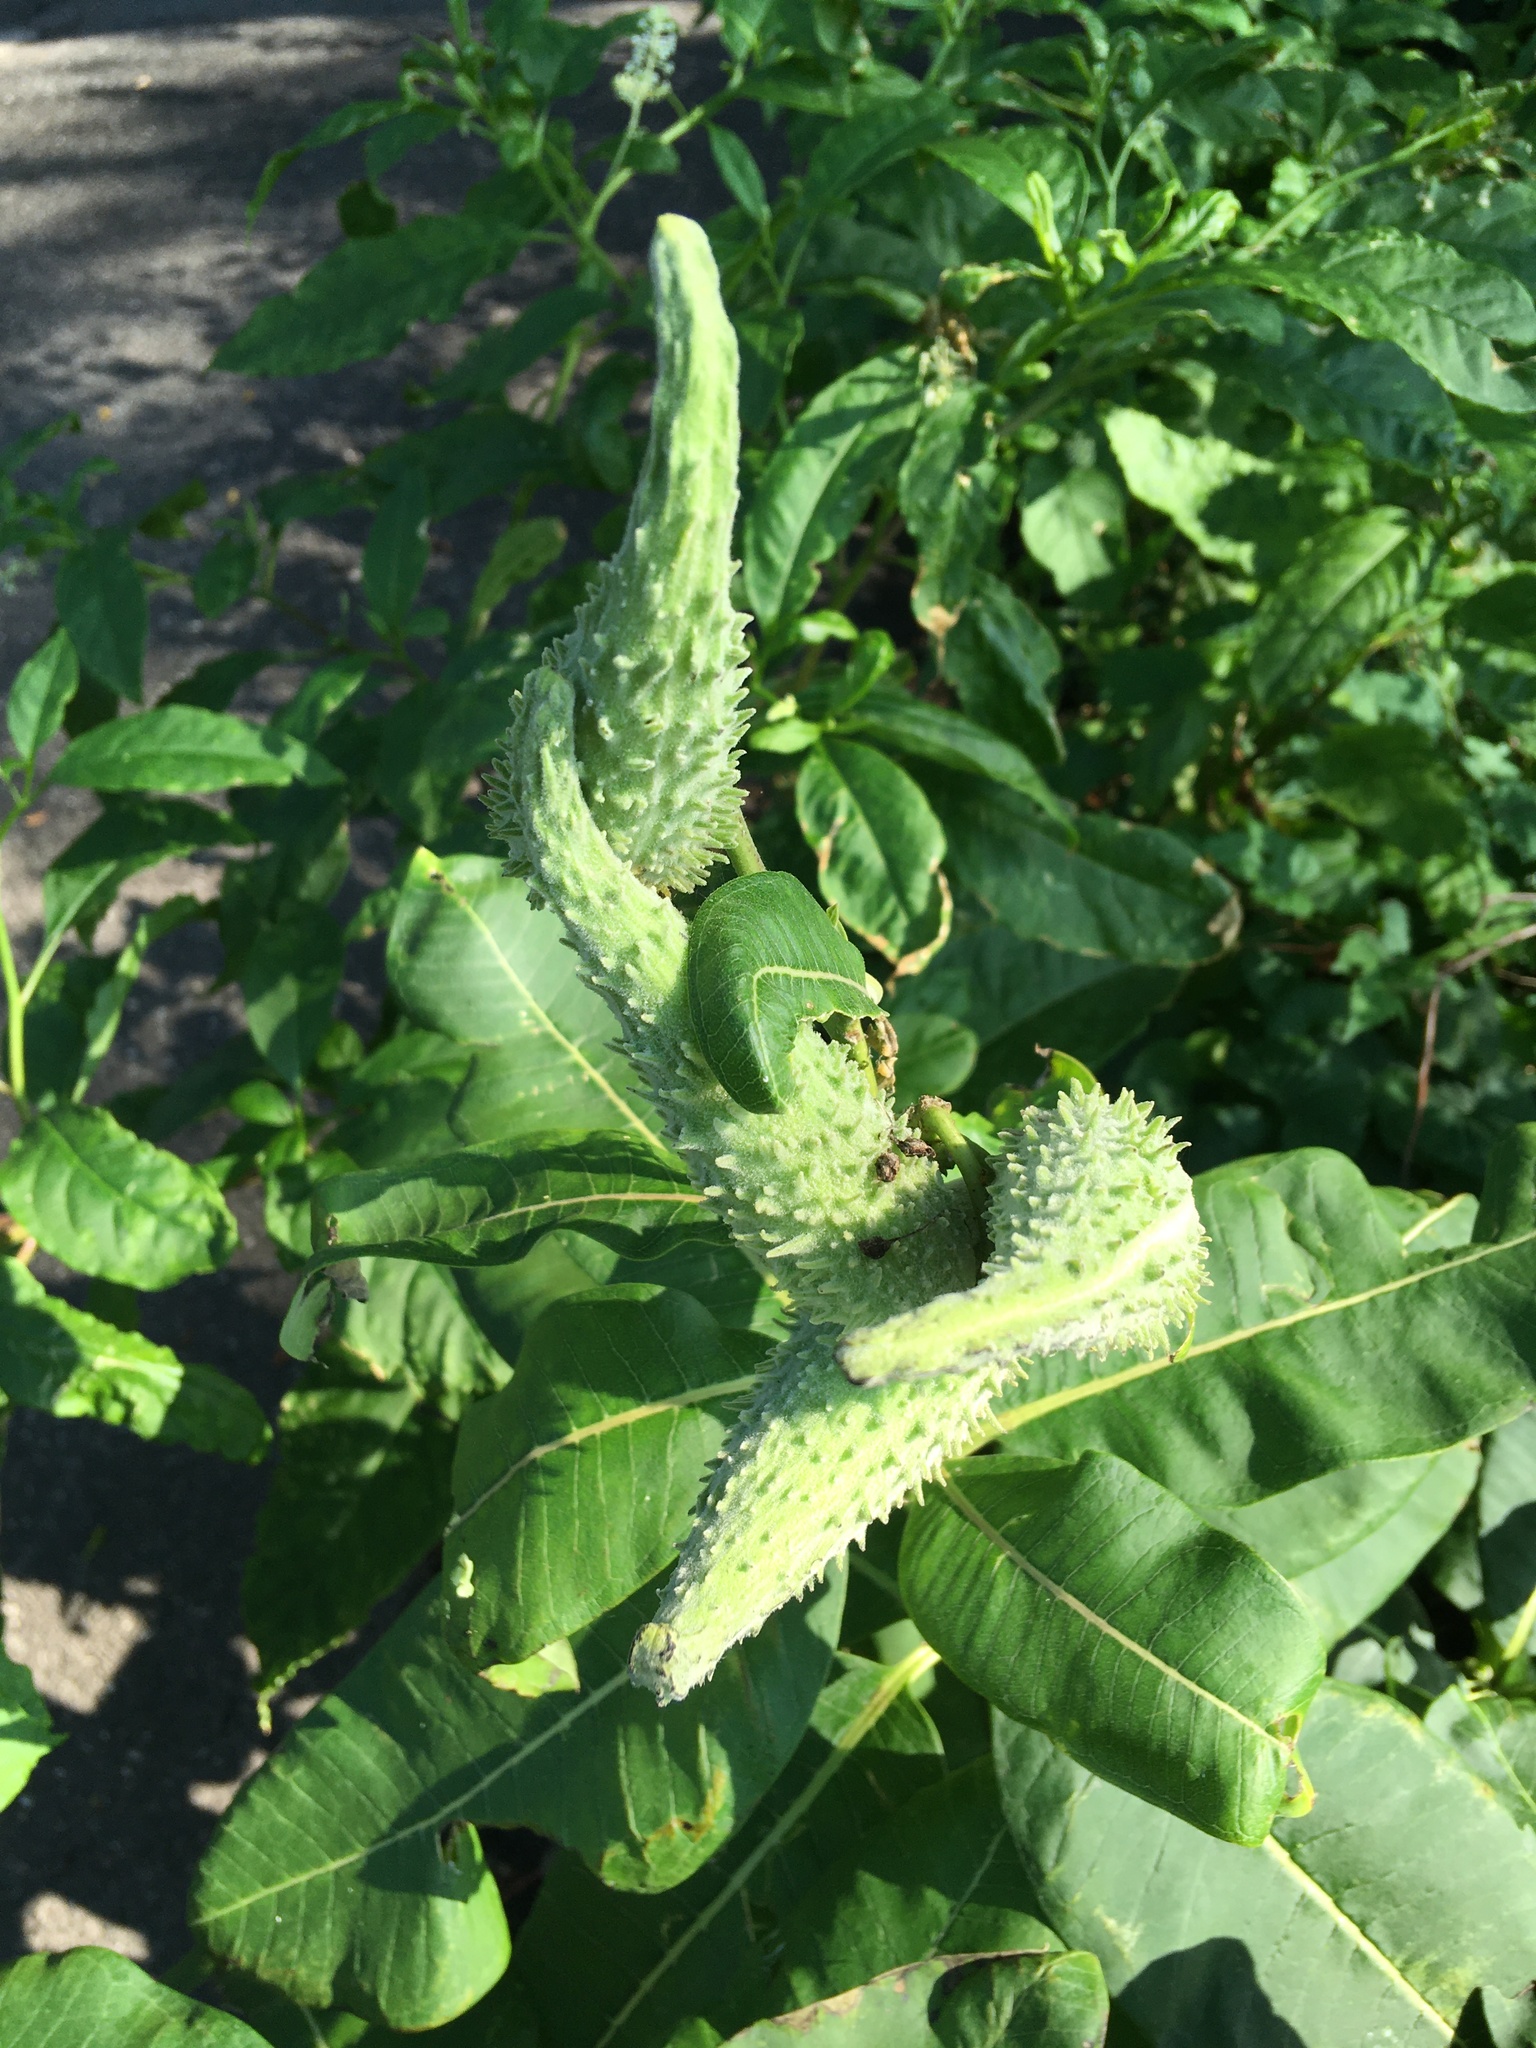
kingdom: Plantae
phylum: Tracheophyta
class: Magnoliopsida
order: Gentianales
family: Apocynaceae
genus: Asclepias
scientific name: Asclepias syriaca
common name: Common milkweed
